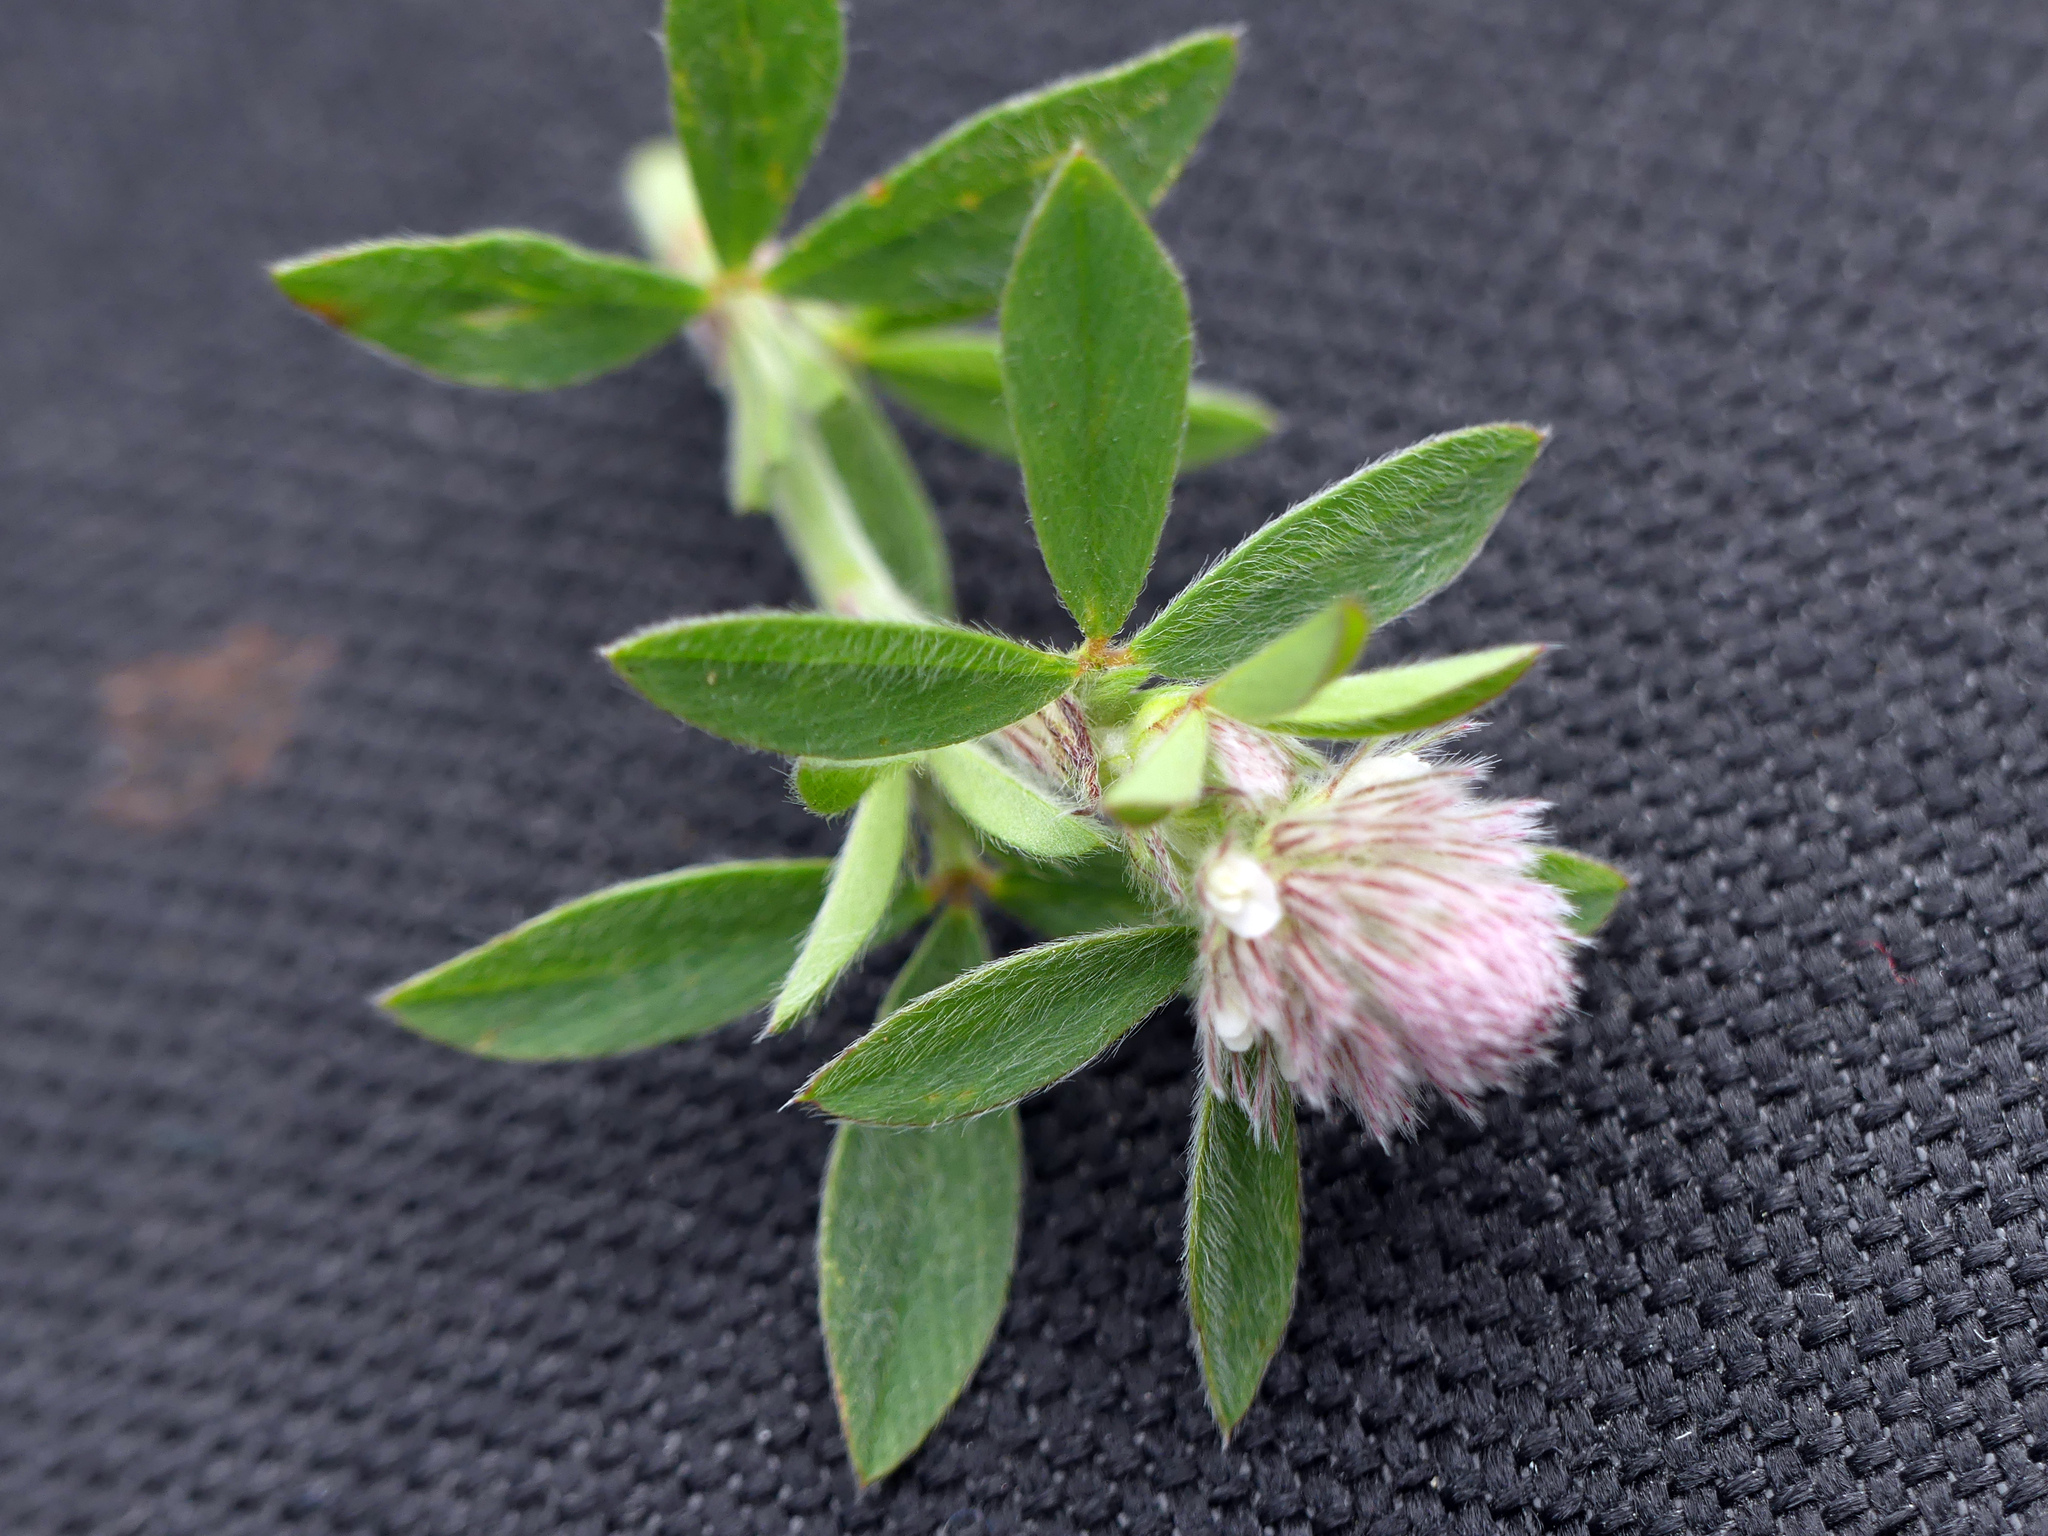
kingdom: Plantae
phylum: Tracheophyta
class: Magnoliopsida
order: Fabales
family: Fabaceae
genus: Trifolium
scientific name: Trifolium arvense
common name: Hare's-foot clover
